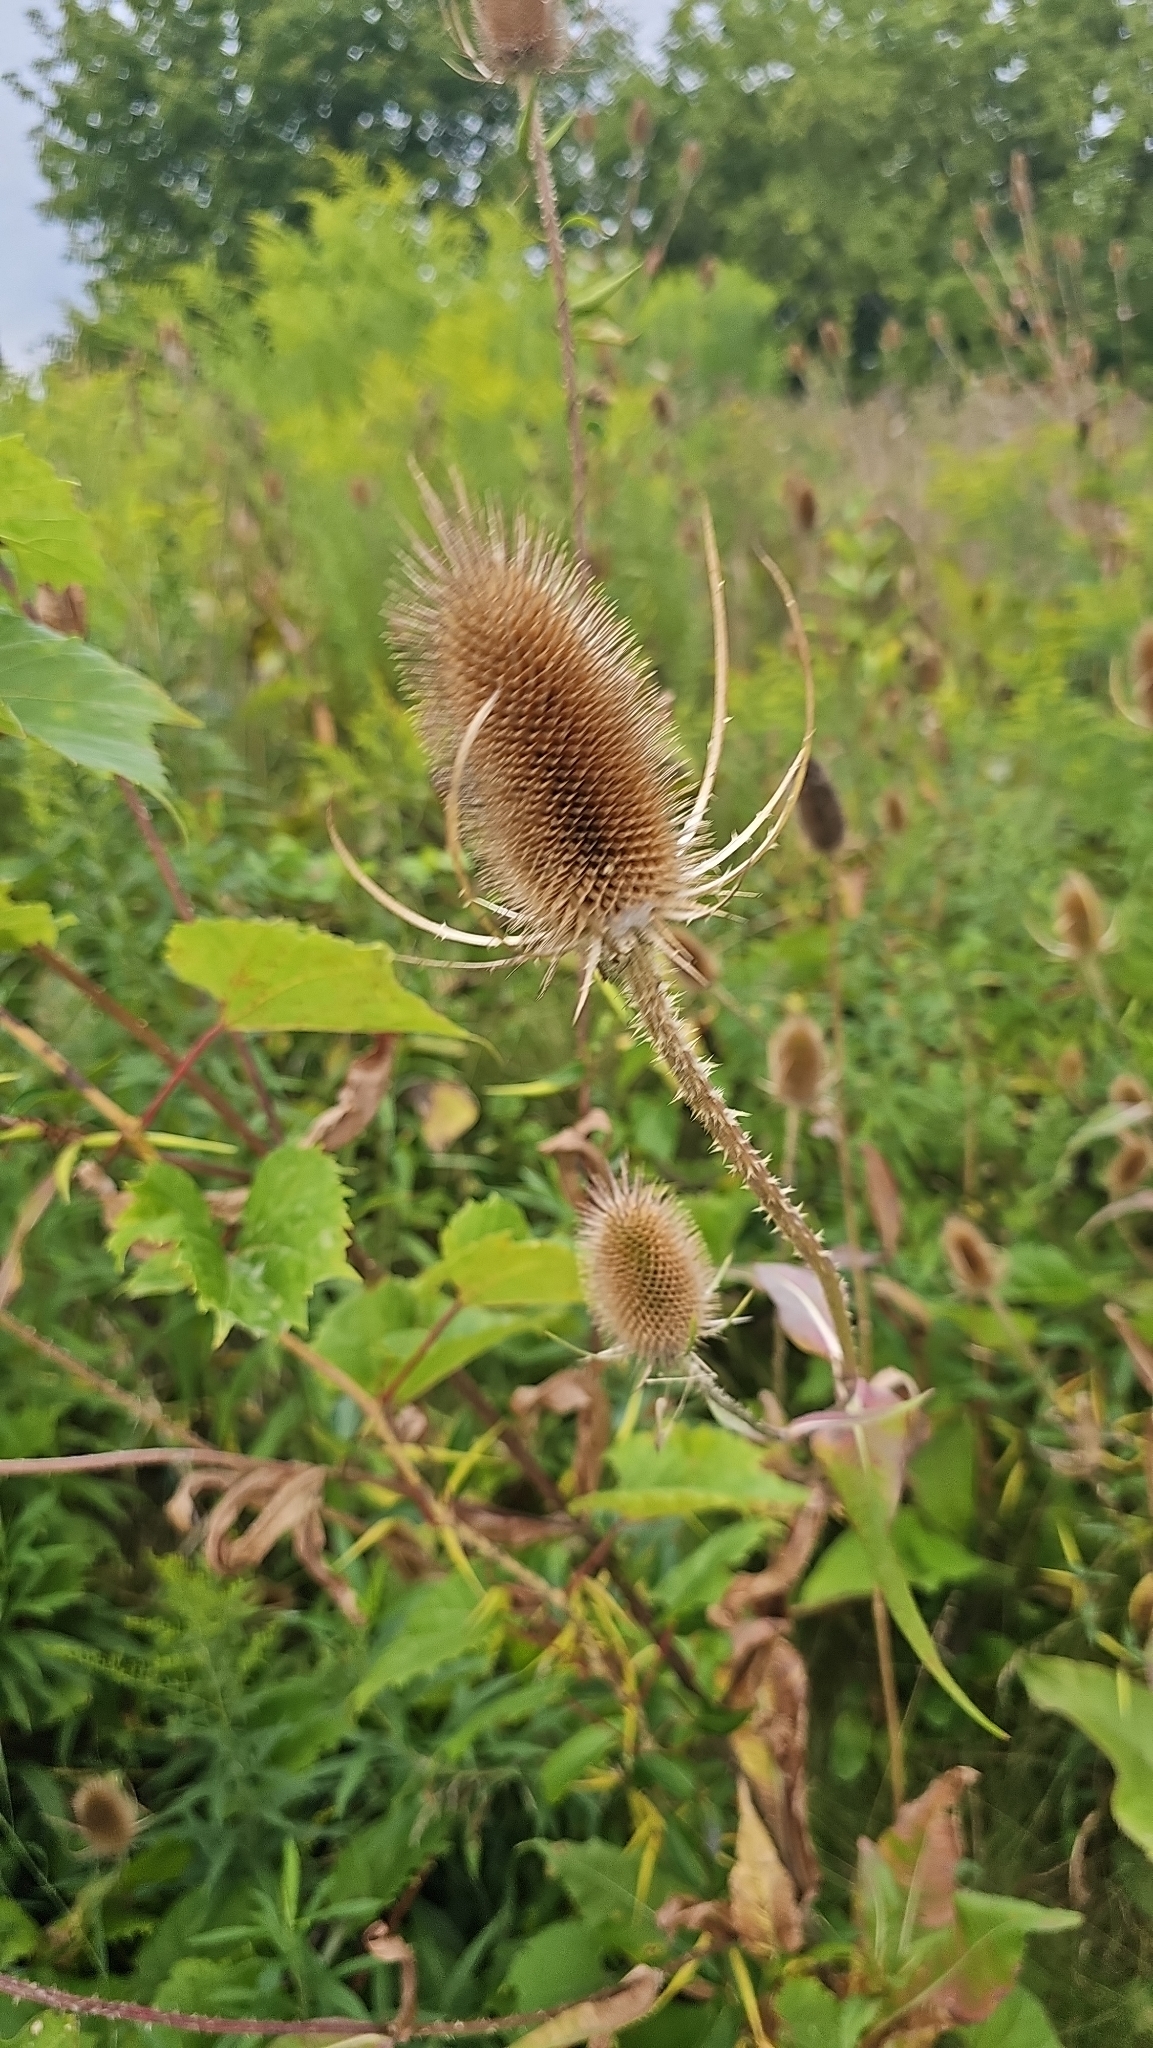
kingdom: Plantae
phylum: Tracheophyta
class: Magnoliopsida
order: Dipsacales
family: Caprifoliaceae
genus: Dipsacus
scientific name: Dipsacus fullonum
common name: Teasel
